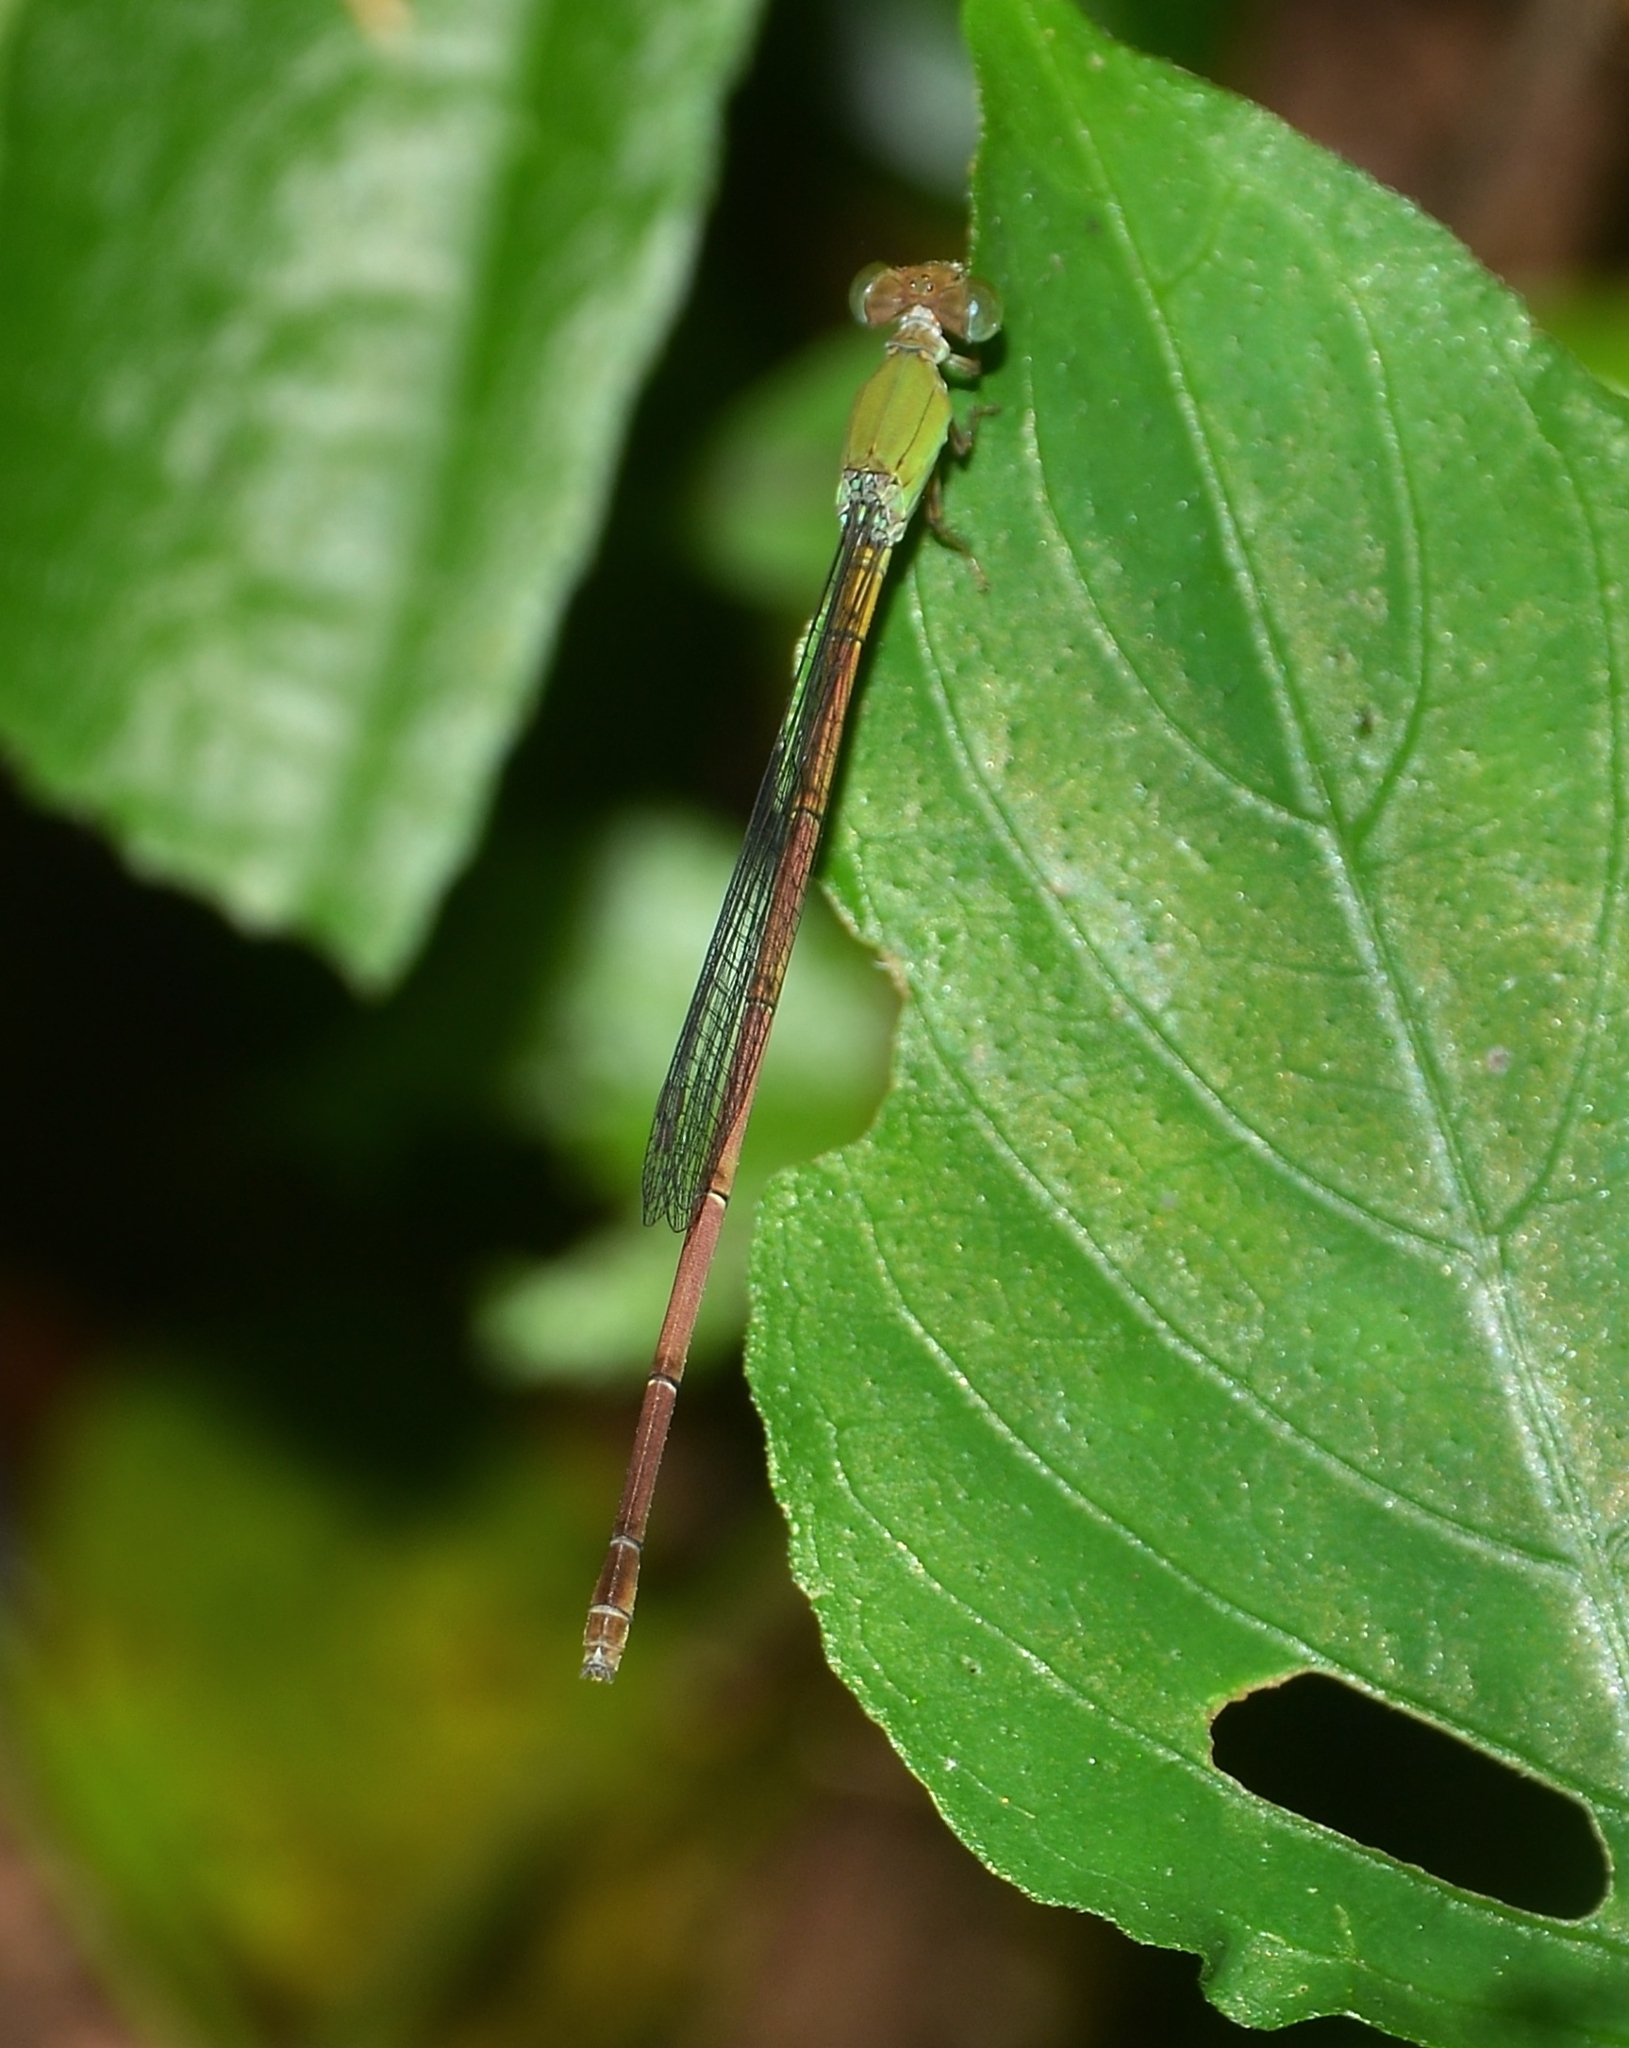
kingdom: Animalia
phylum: Arthropoda
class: Insecta
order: Odonata
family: Coenagrionidae
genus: Ceriagrion
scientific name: Ceriagrion olivaceum
